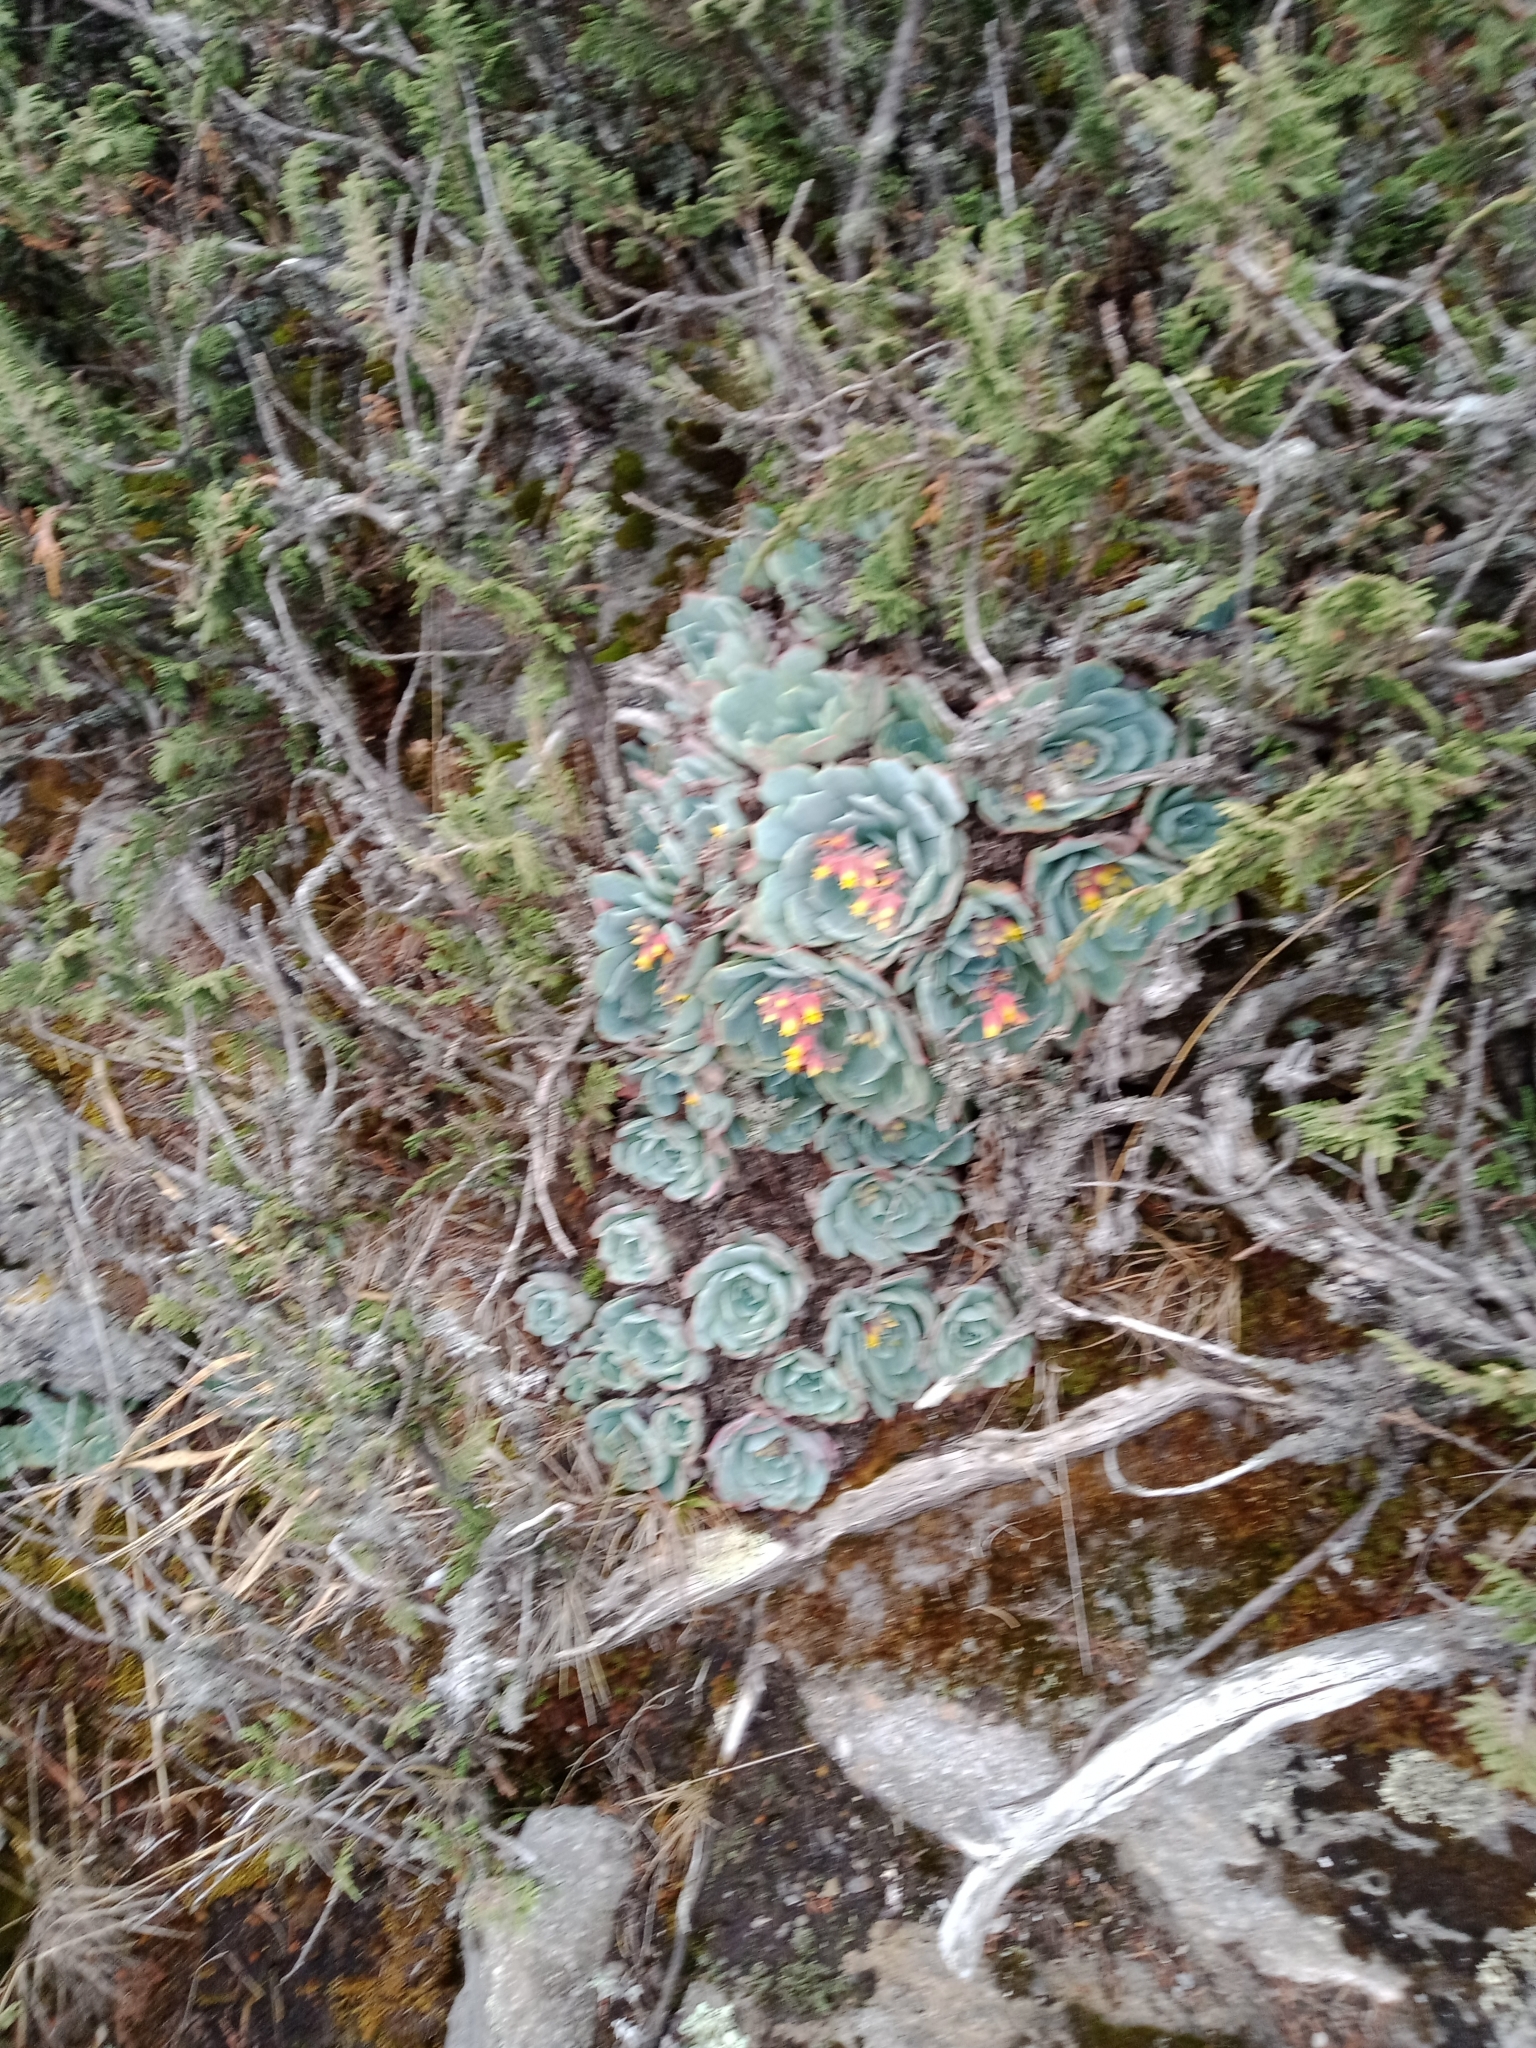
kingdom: Plantae
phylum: Tracheophyta
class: Magnoliopsida
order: Saxifragales
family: Crassulaceae
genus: Echeveria
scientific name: Echeveria secunda
